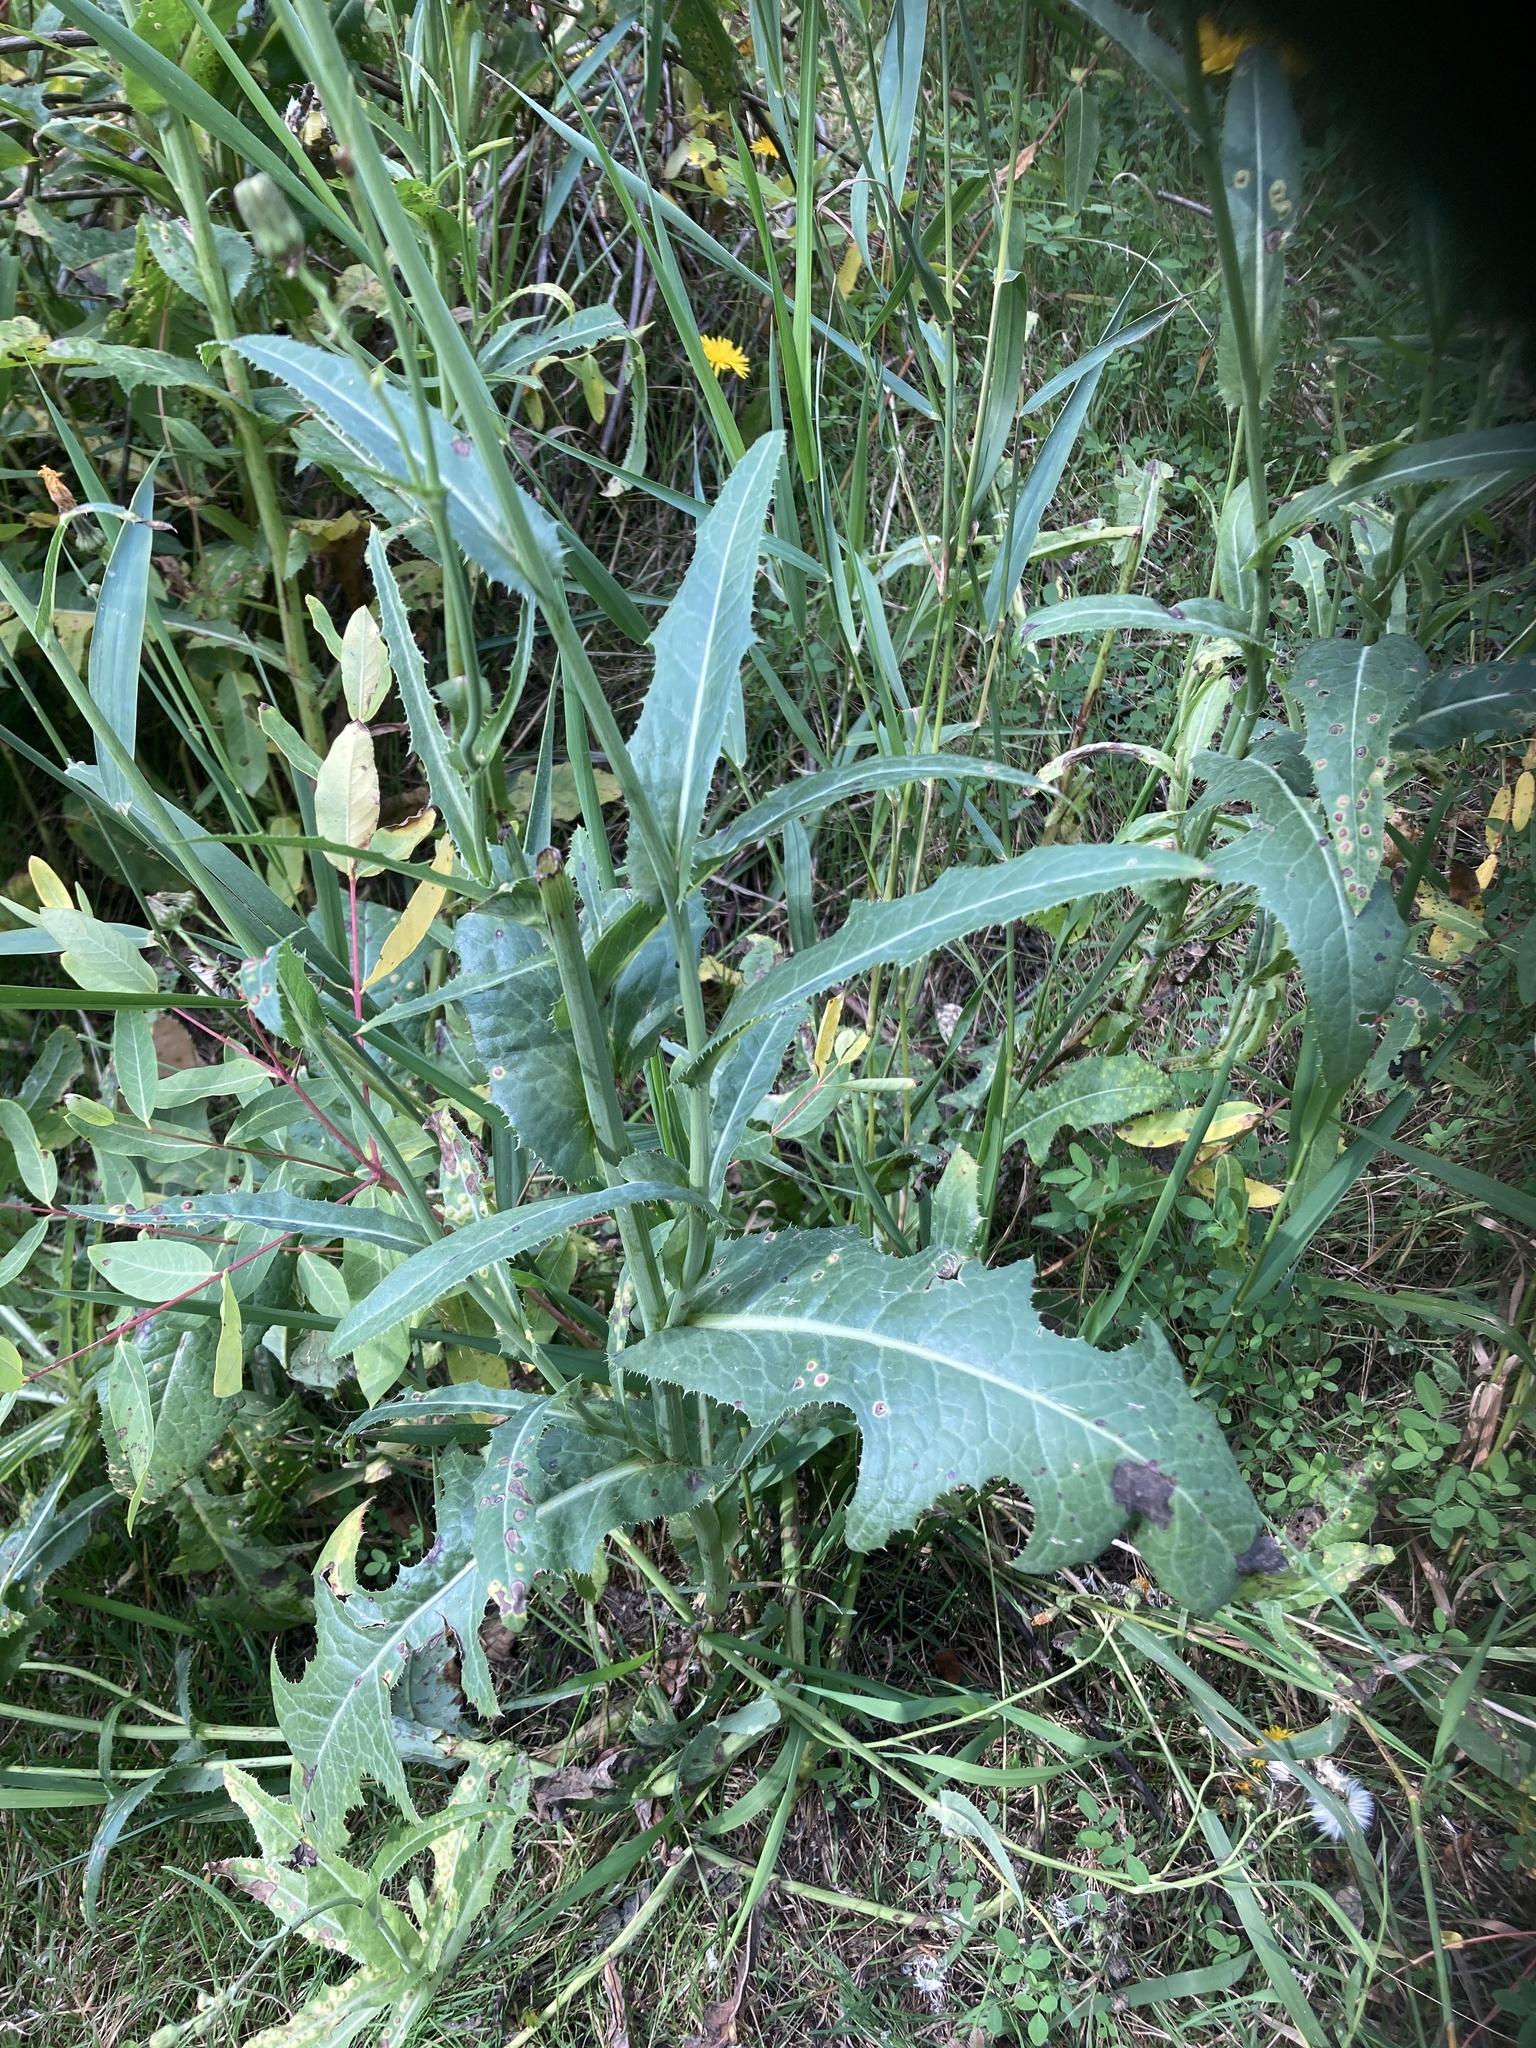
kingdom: Plantae
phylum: Tracheophyta
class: Magnoliopsida
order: Asterales
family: Asteraceae
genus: Sonchus
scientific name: Sonchus arvensis
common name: Perennial sow-thistle
